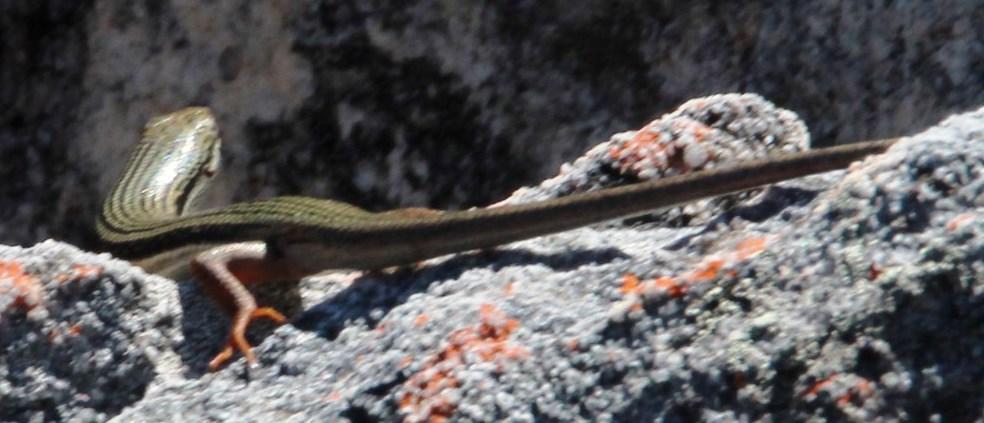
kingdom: Animalia
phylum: Chordata
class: Squamata
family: Scincidae
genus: Trachylepis
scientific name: Trachylepis homalocephala
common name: Red-sided skink
